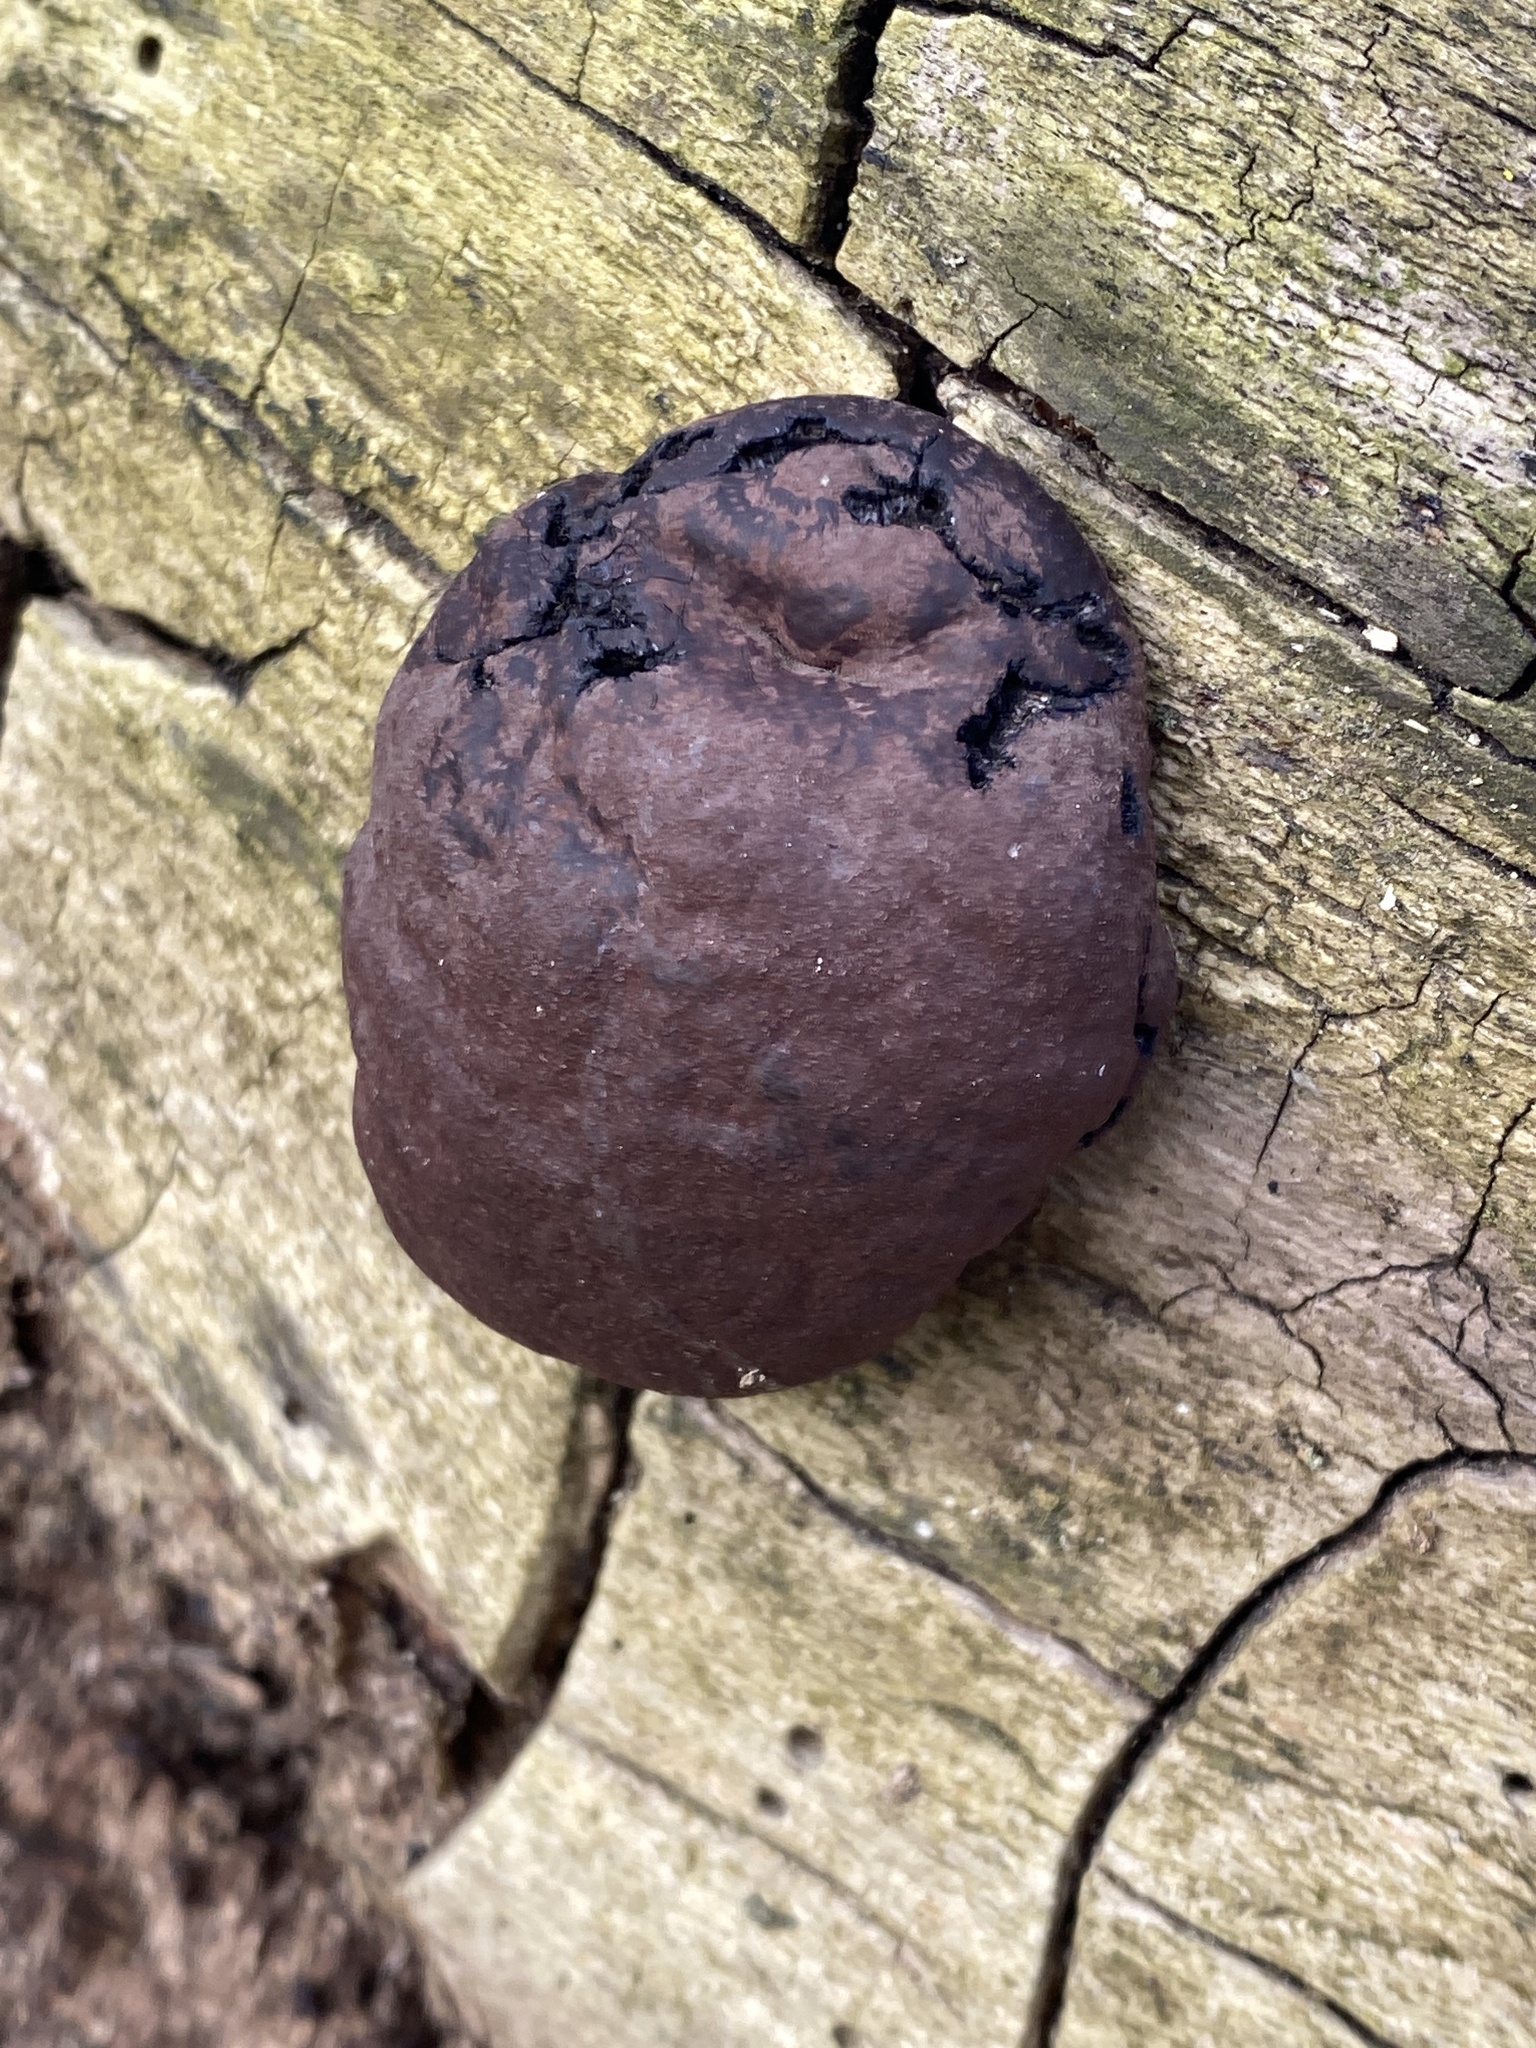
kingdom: Fungi
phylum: Ascomycota
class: Sordariomycetes
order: Xylariales
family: Hypoxylaceae
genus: Daldinia
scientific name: Daldinia concentrica
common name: Cramp balls
